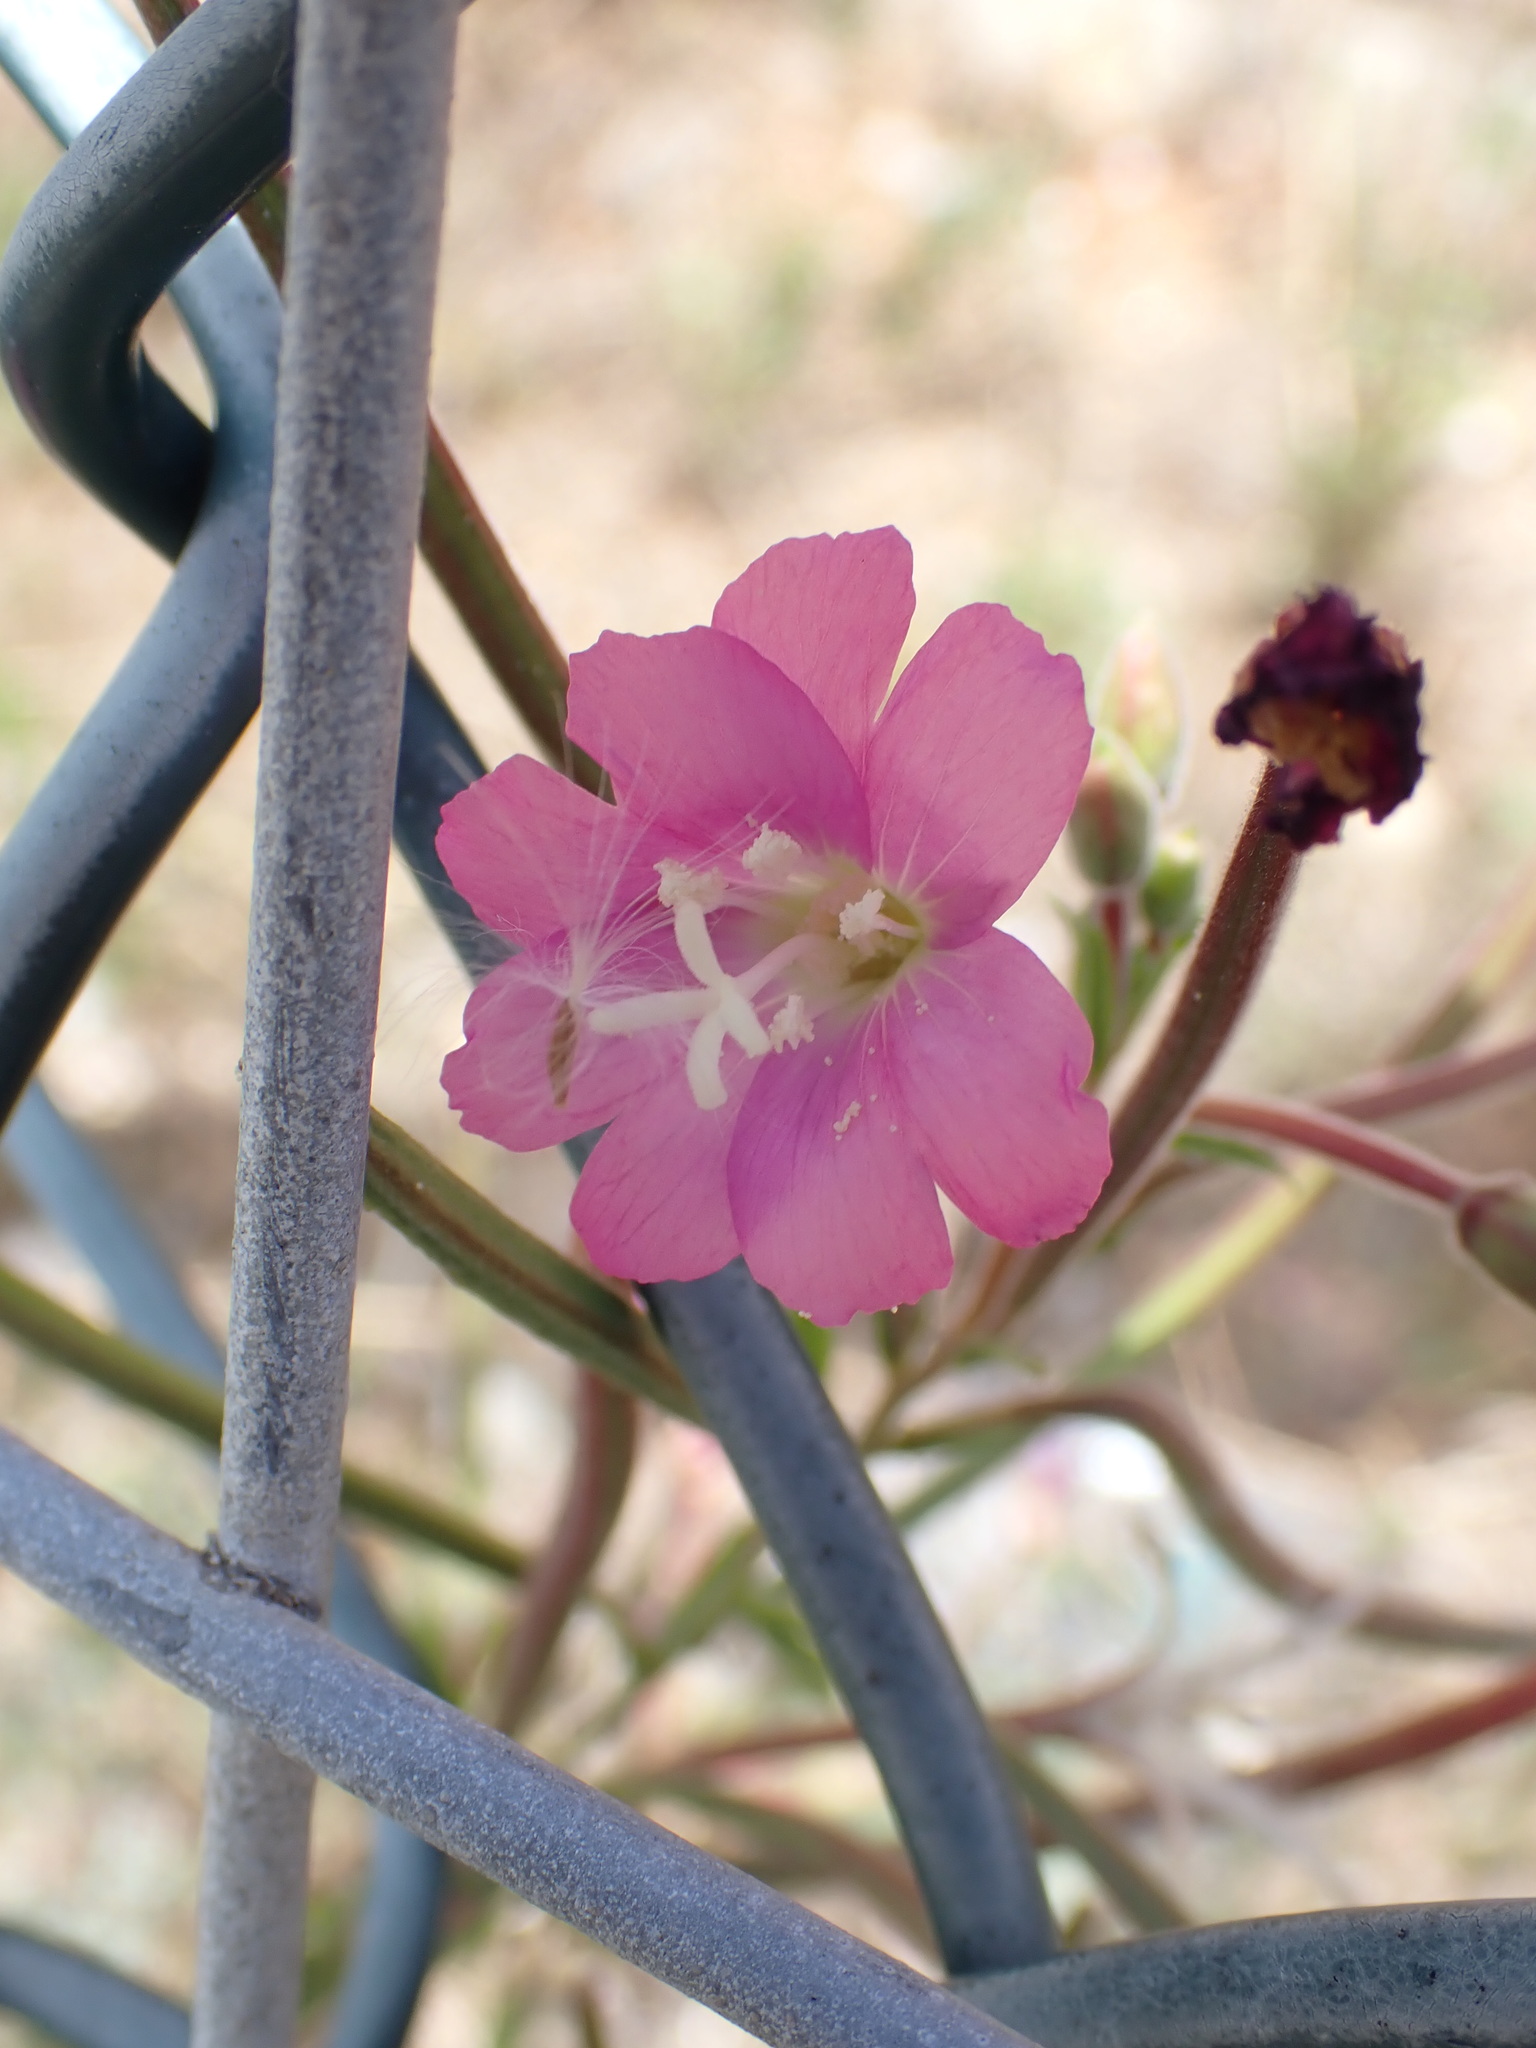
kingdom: Plantae
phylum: Tracheophyta
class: Magnoliopsida
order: Myrtales
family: Onagraceae
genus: Epilobium
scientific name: Epilobium hirsutum
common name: Great willowherb
